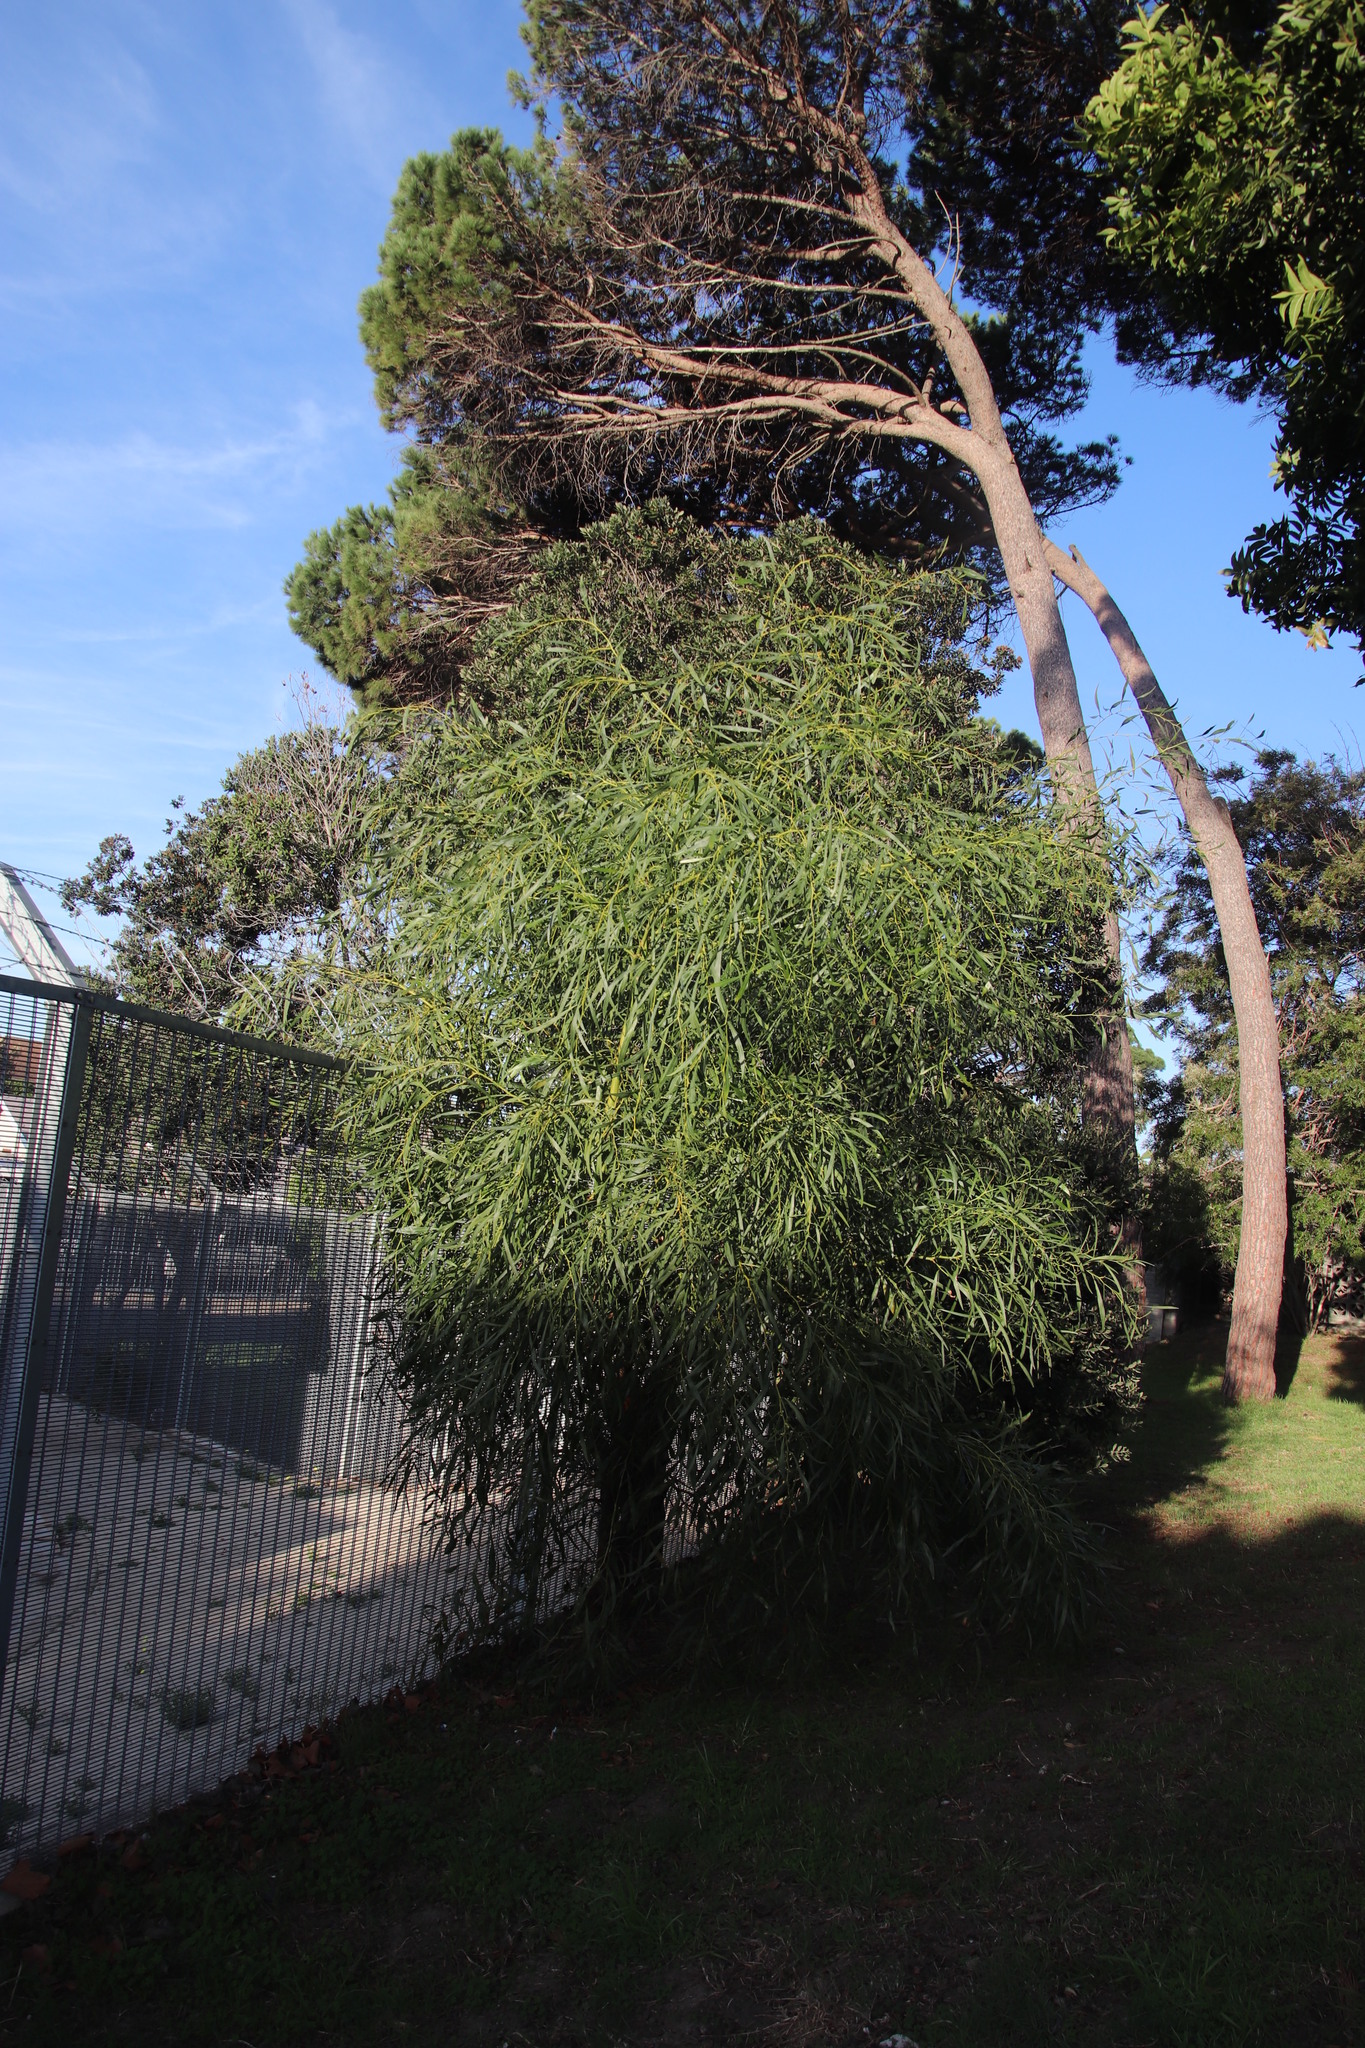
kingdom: Plantae
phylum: Tracheophyta
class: Magnoliopsida
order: Fabales
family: Fabaceae
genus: Acacia
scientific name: Acacia saligna
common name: Orange wattle
